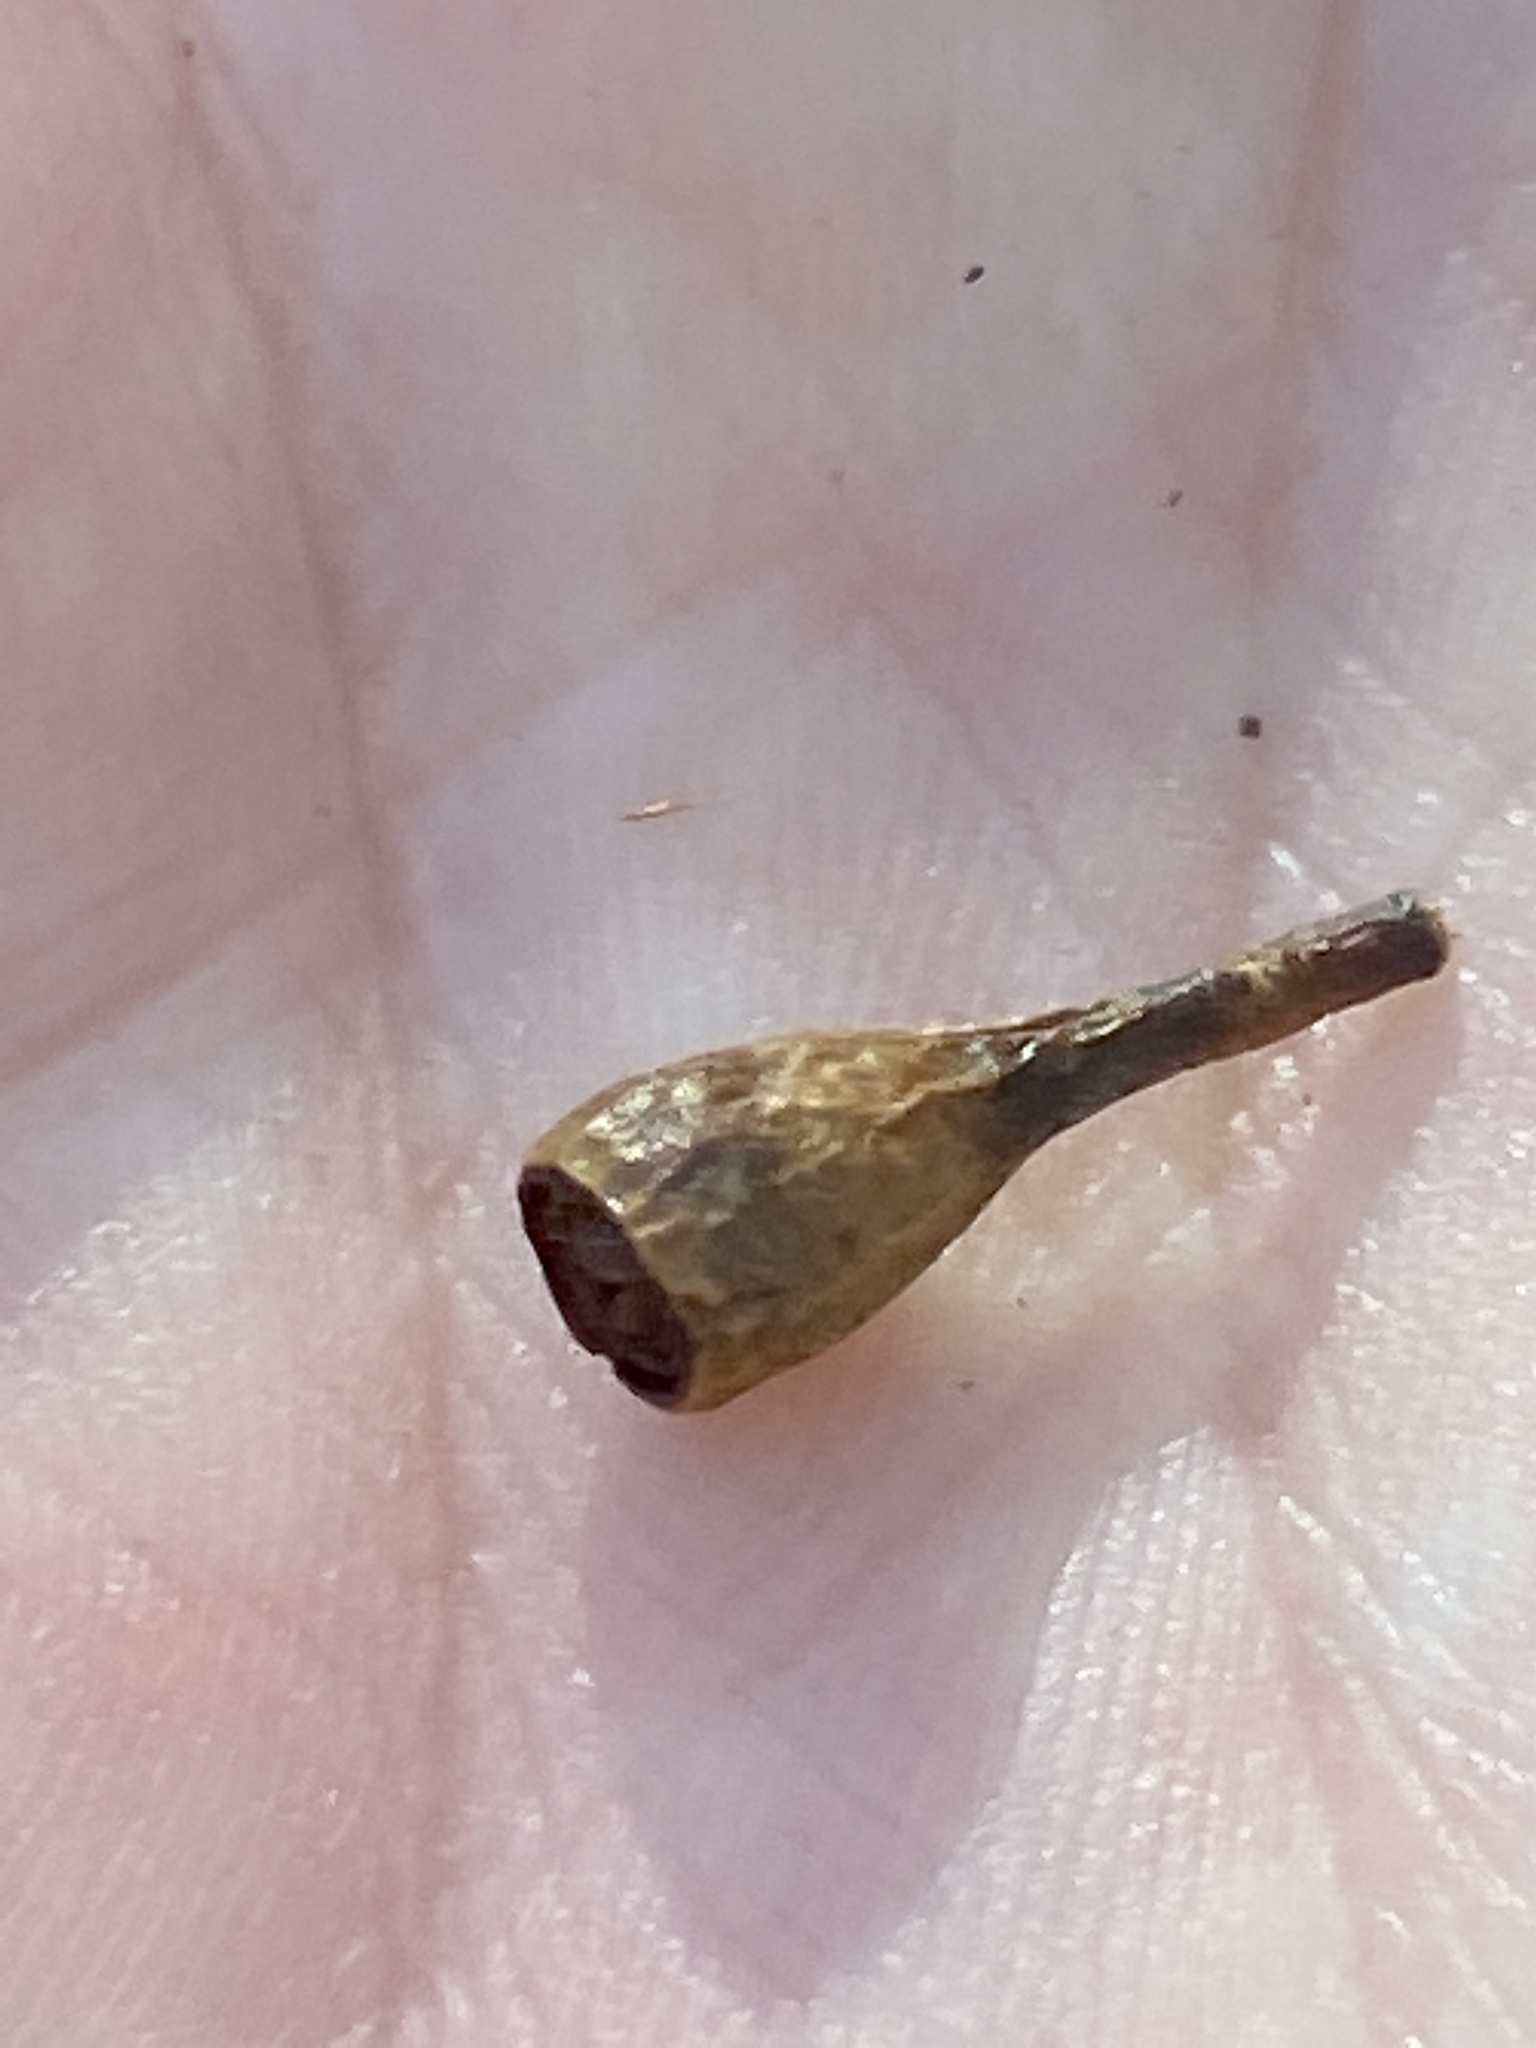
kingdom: Plantae
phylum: Tracheophyta
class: Magnoliopsida
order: Myrtales
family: Myrtaceae
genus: Eucalyptus
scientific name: Eucalyptus microcorys
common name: Tallowwood
